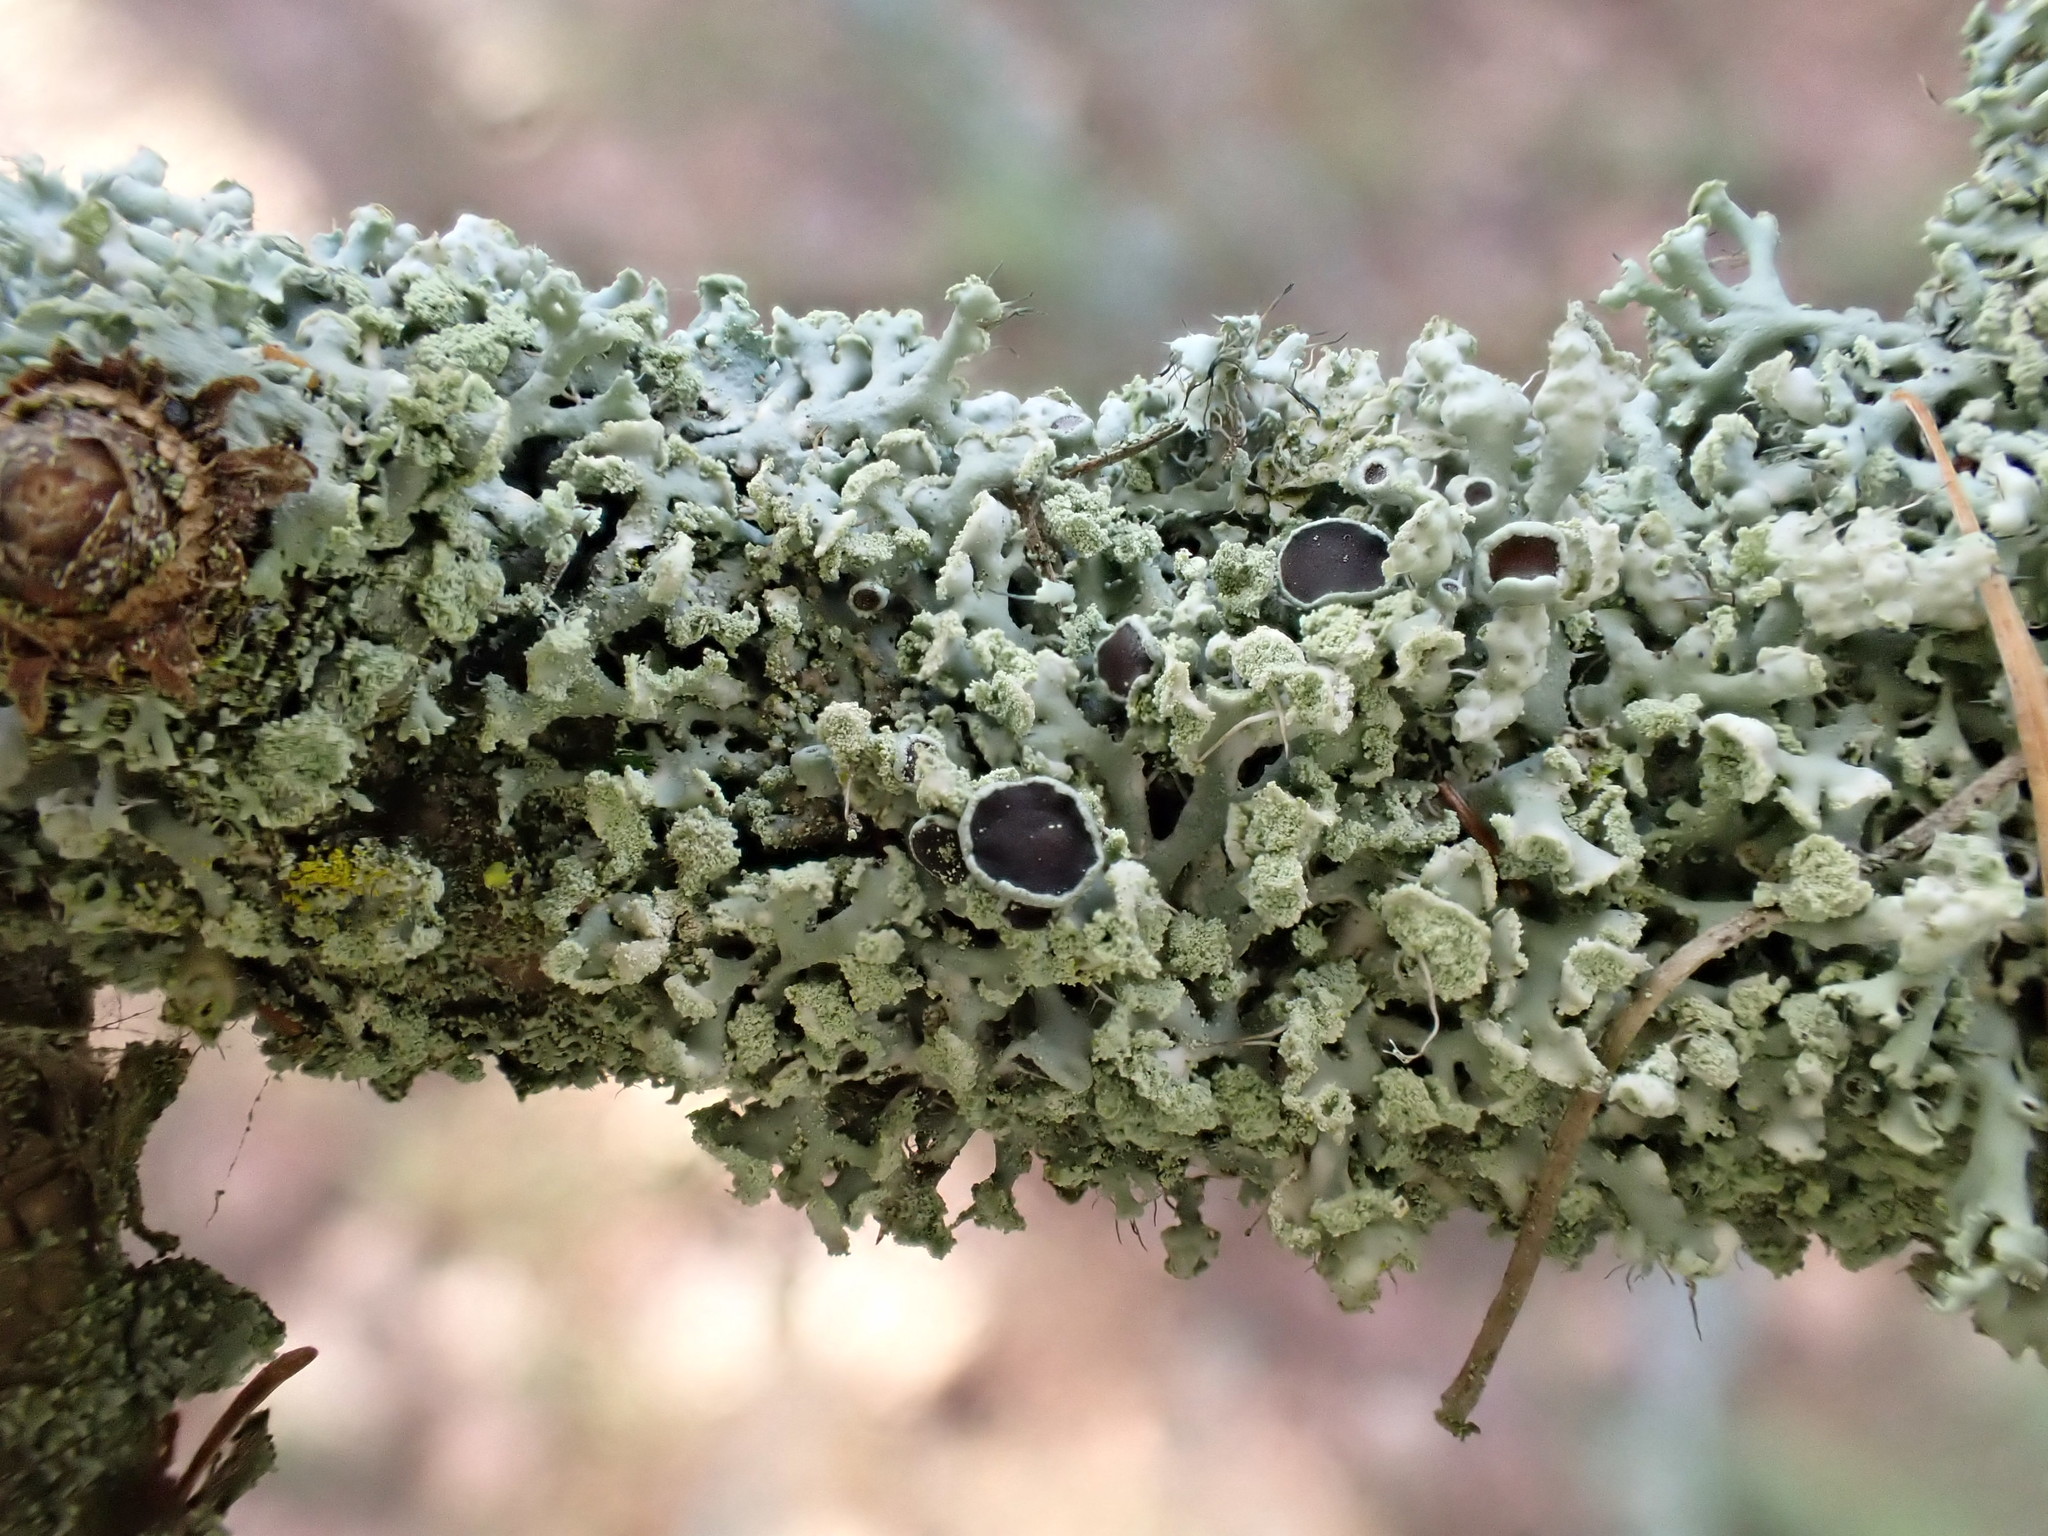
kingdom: Fungi
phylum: Ascomycota
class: Lecanoromycetes
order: Caliciales
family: Physciaceae
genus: Physcia
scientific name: Physcia tenella
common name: Fringed rosette lichen
